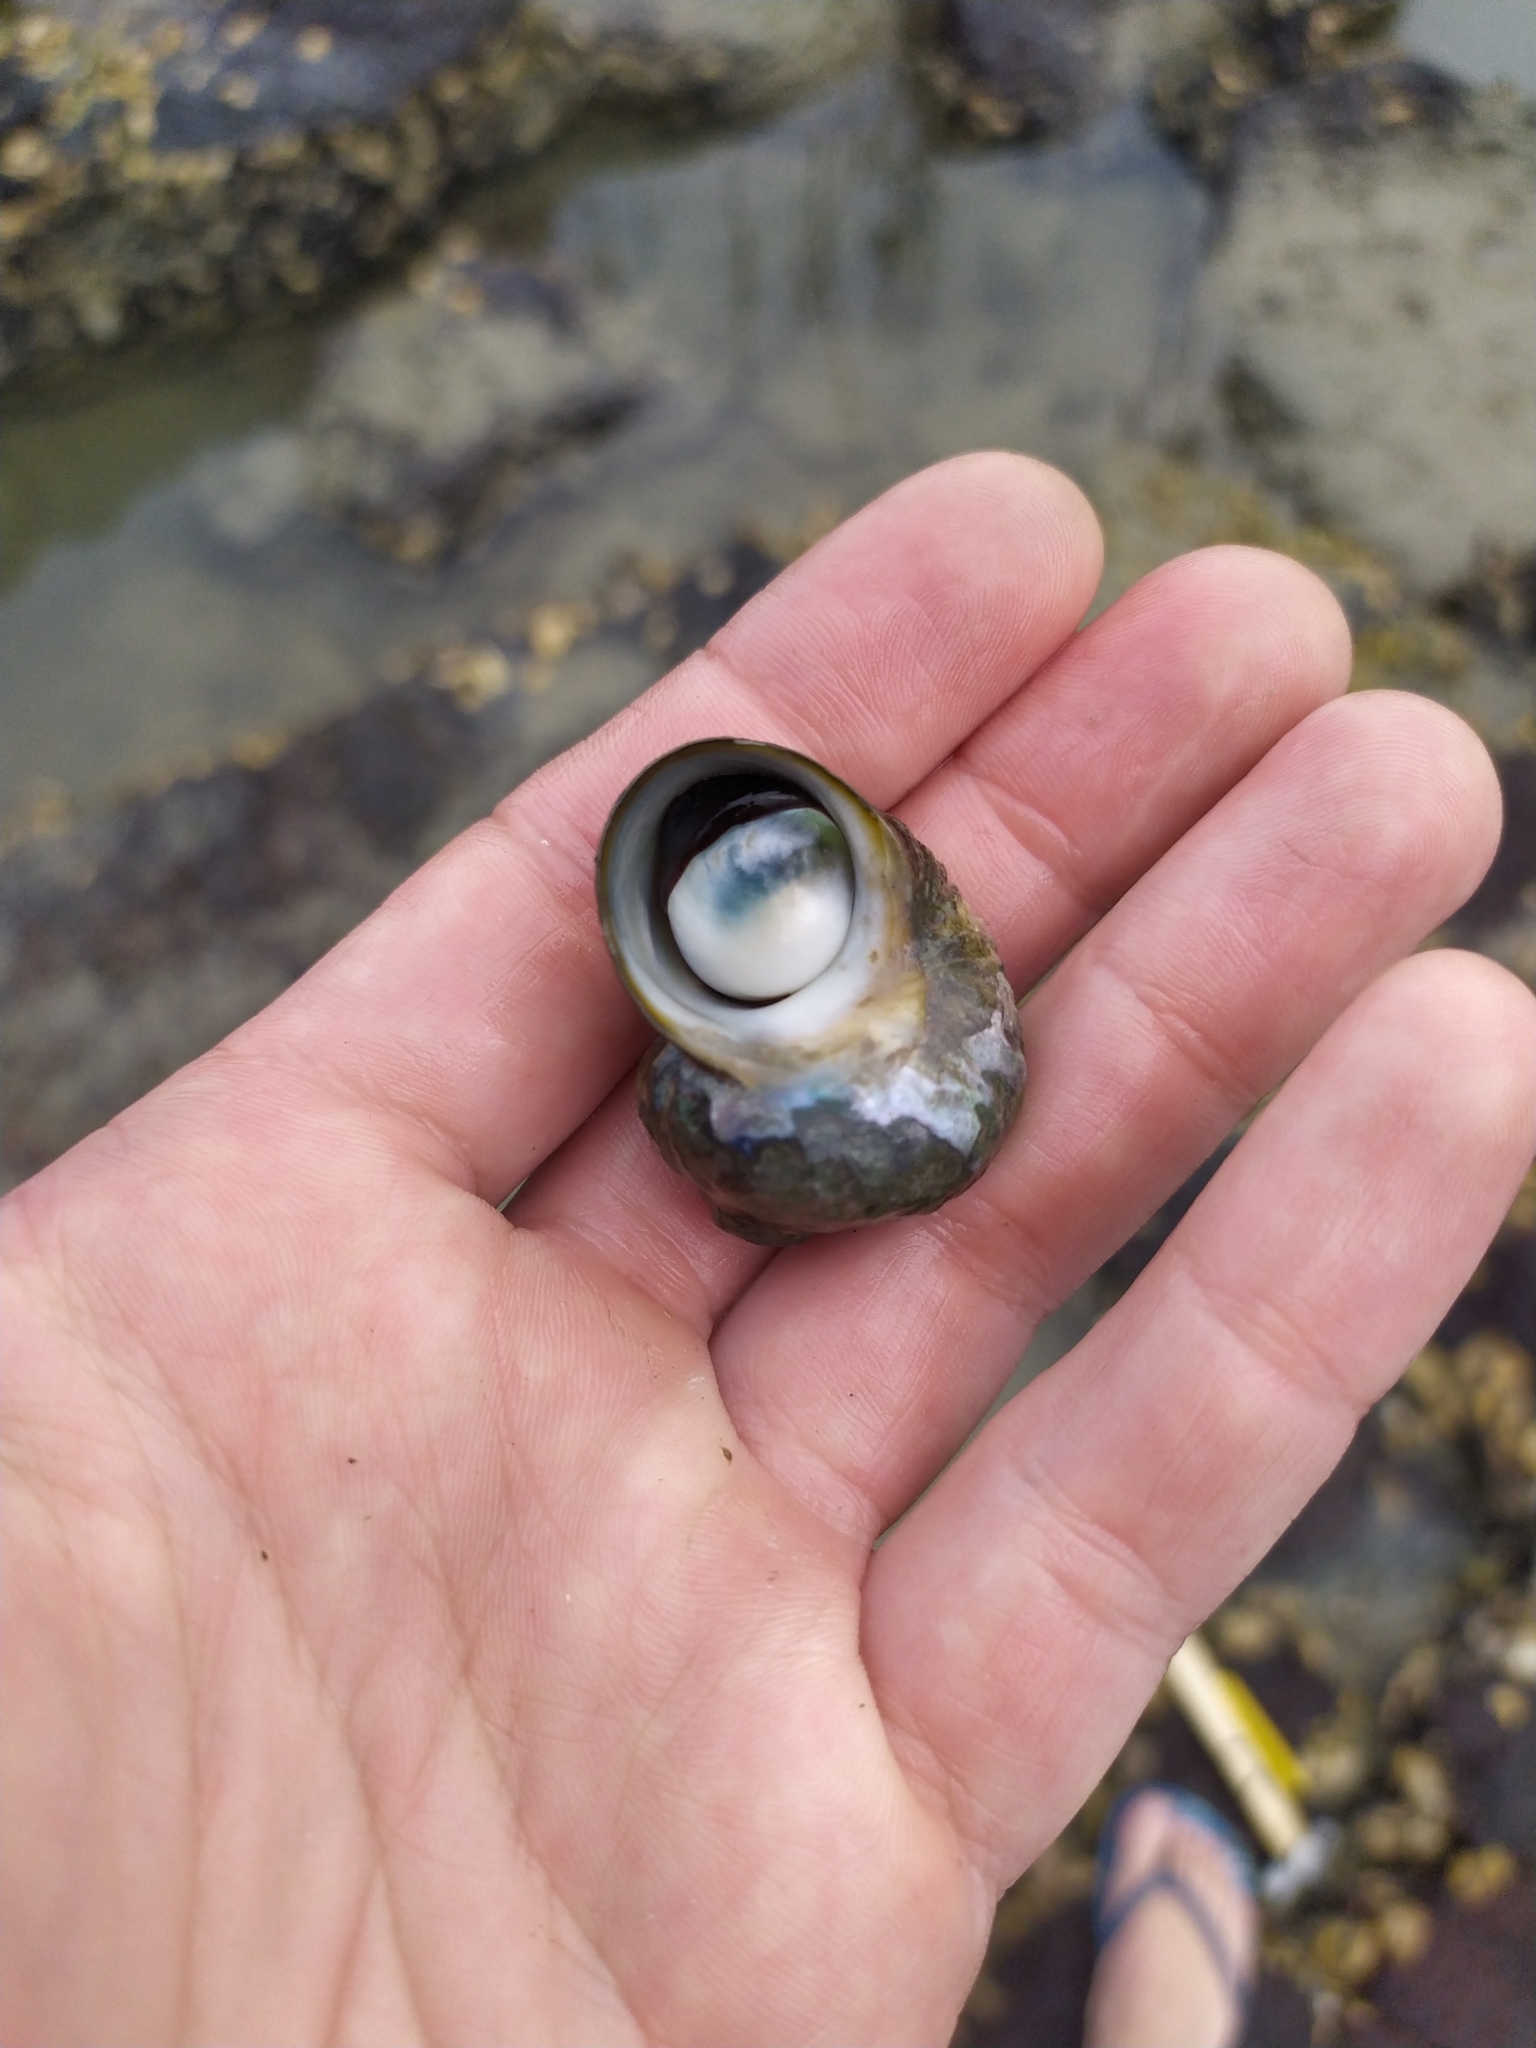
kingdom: Animalia
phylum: Mollusca
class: Gastropoda
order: Trochida
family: Turbinidae
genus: Lunella
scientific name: Lunella smaragda
